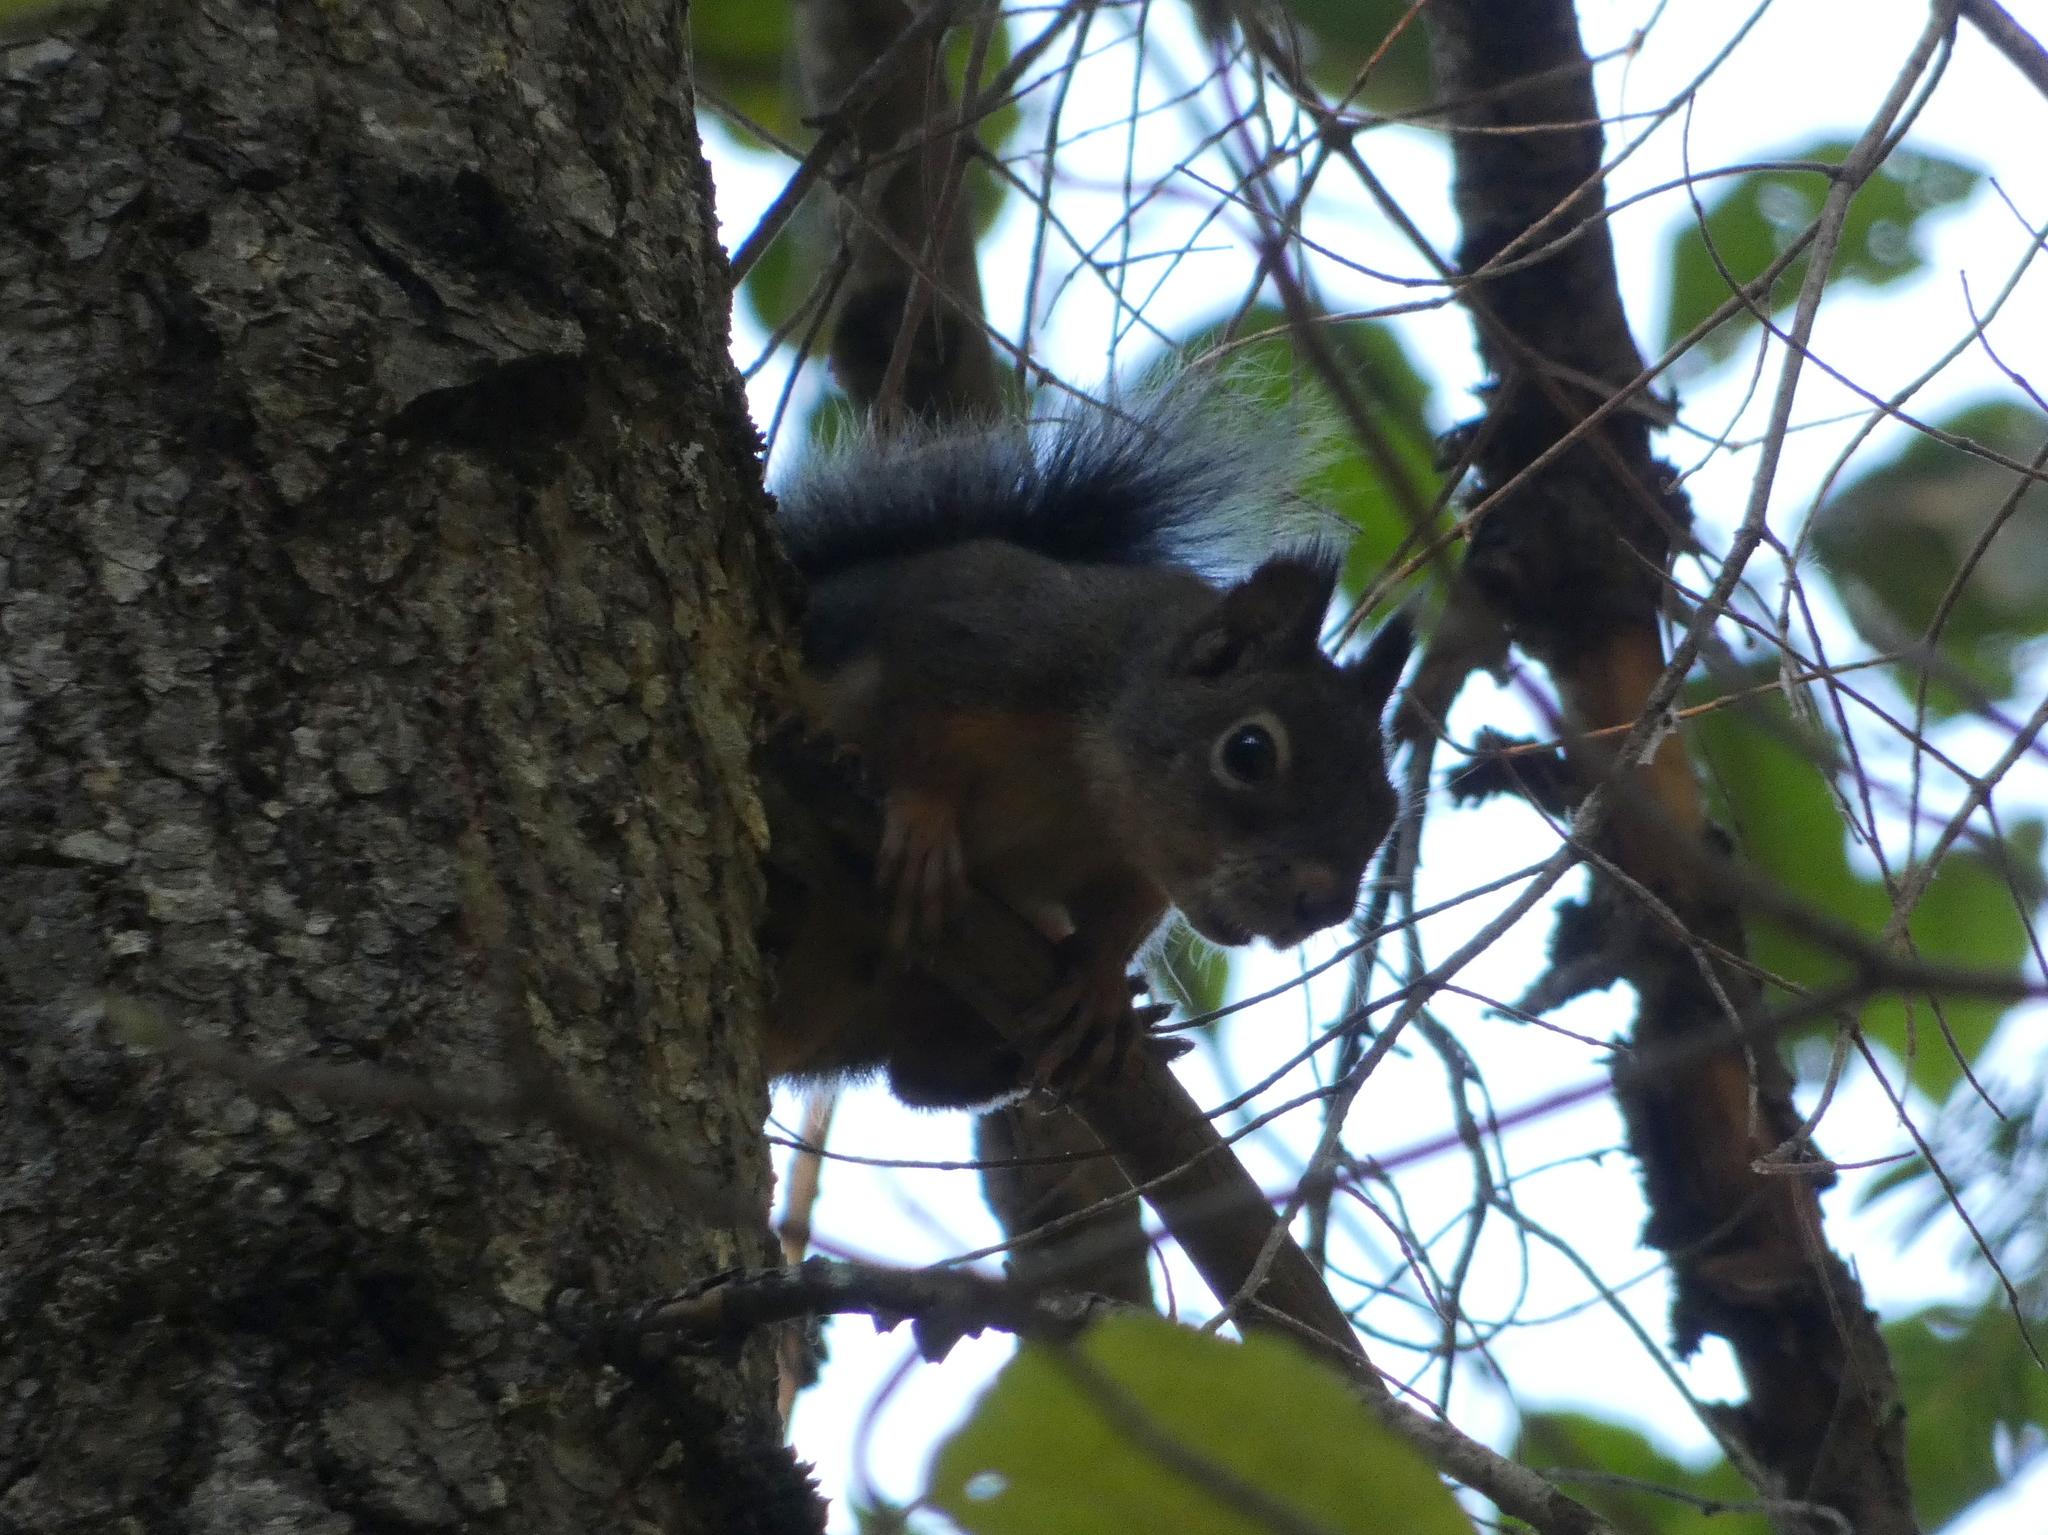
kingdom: Animalia
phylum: Chordata
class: Mammalia
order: Rodentia
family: Sciuridae
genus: Tamiasciurus
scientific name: Tamiasciurus douglasii
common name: Douglas's squirrel
